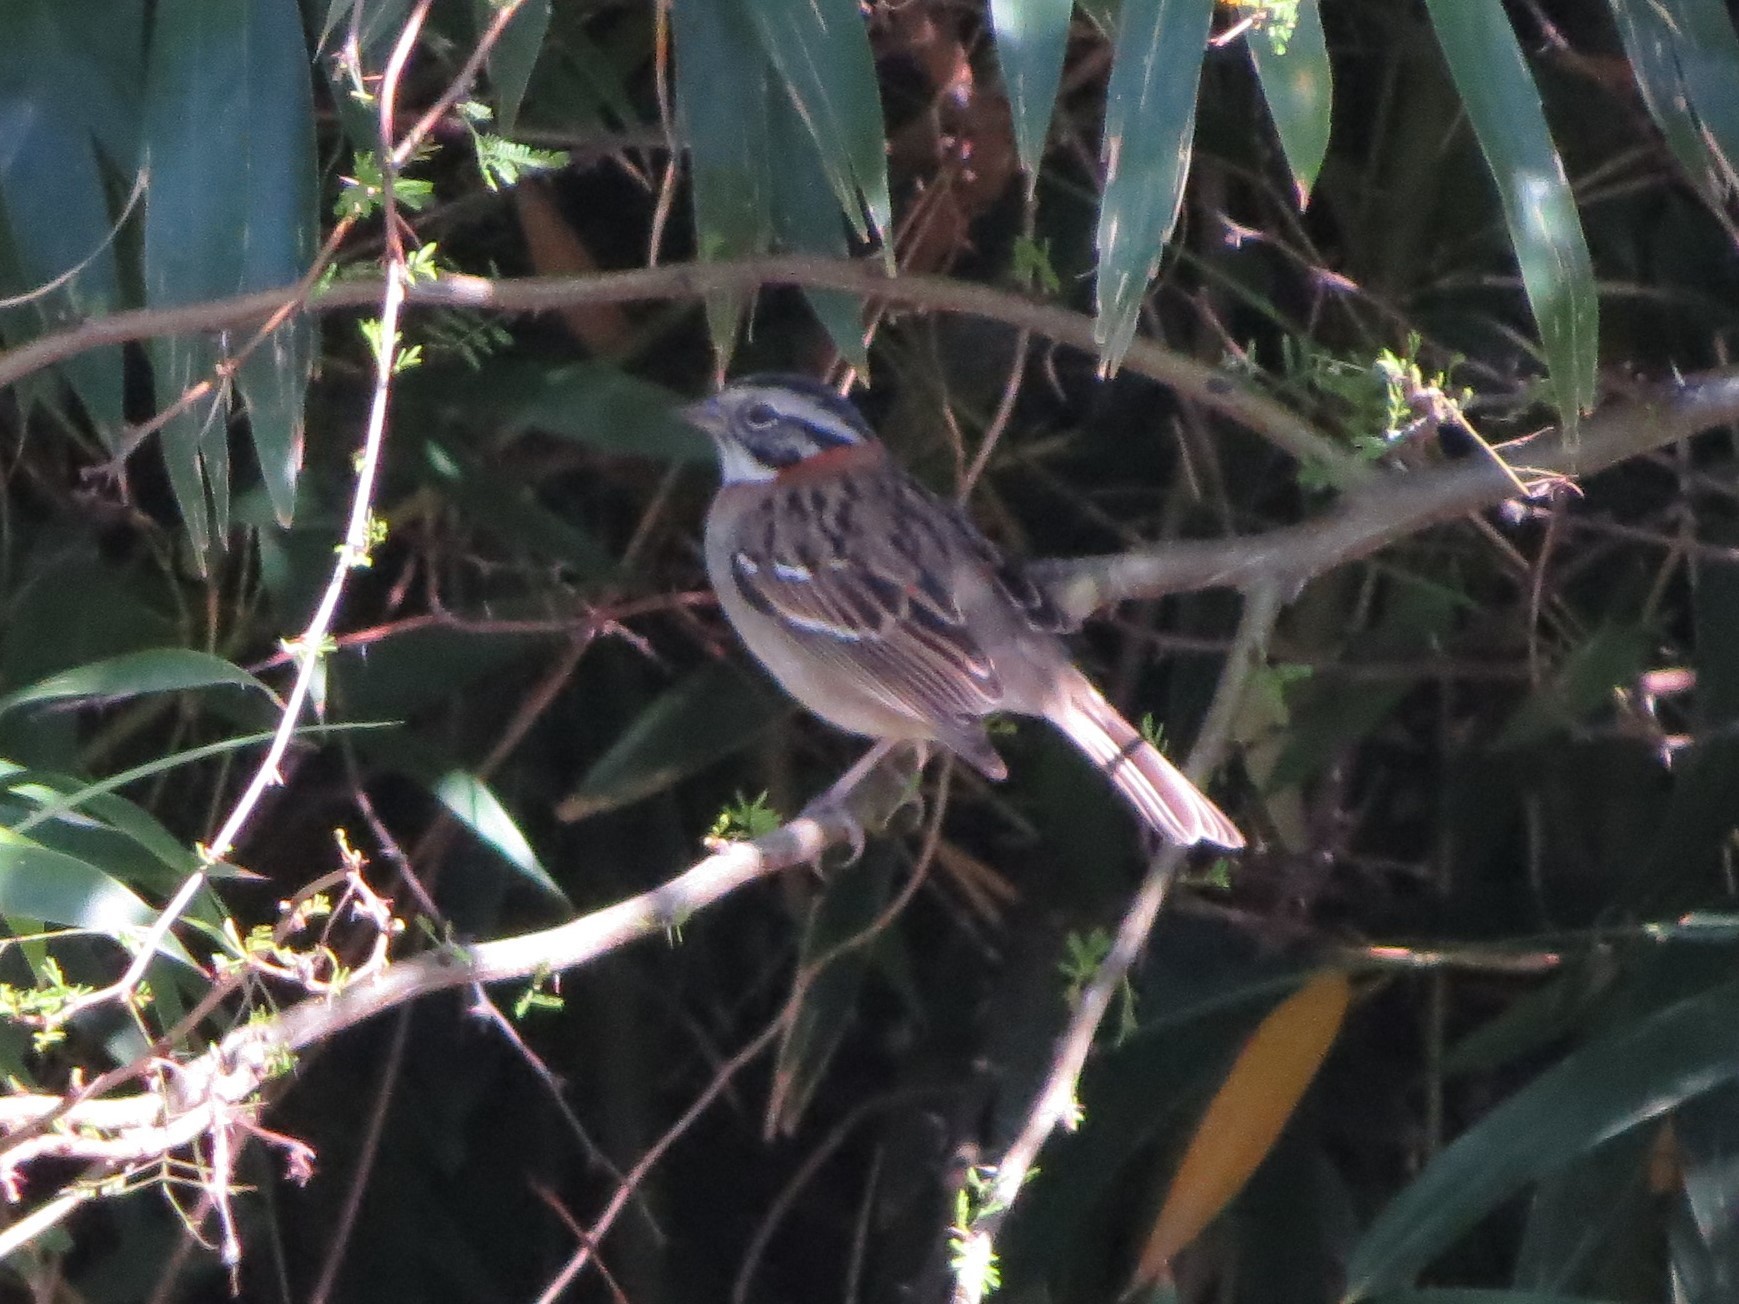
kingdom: Animalia
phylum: Chordata
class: Aves
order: Passeriformes
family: Passerellidae
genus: Zonotrichia
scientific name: Zonotrichia capensis
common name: Rufous-collared sparrow
